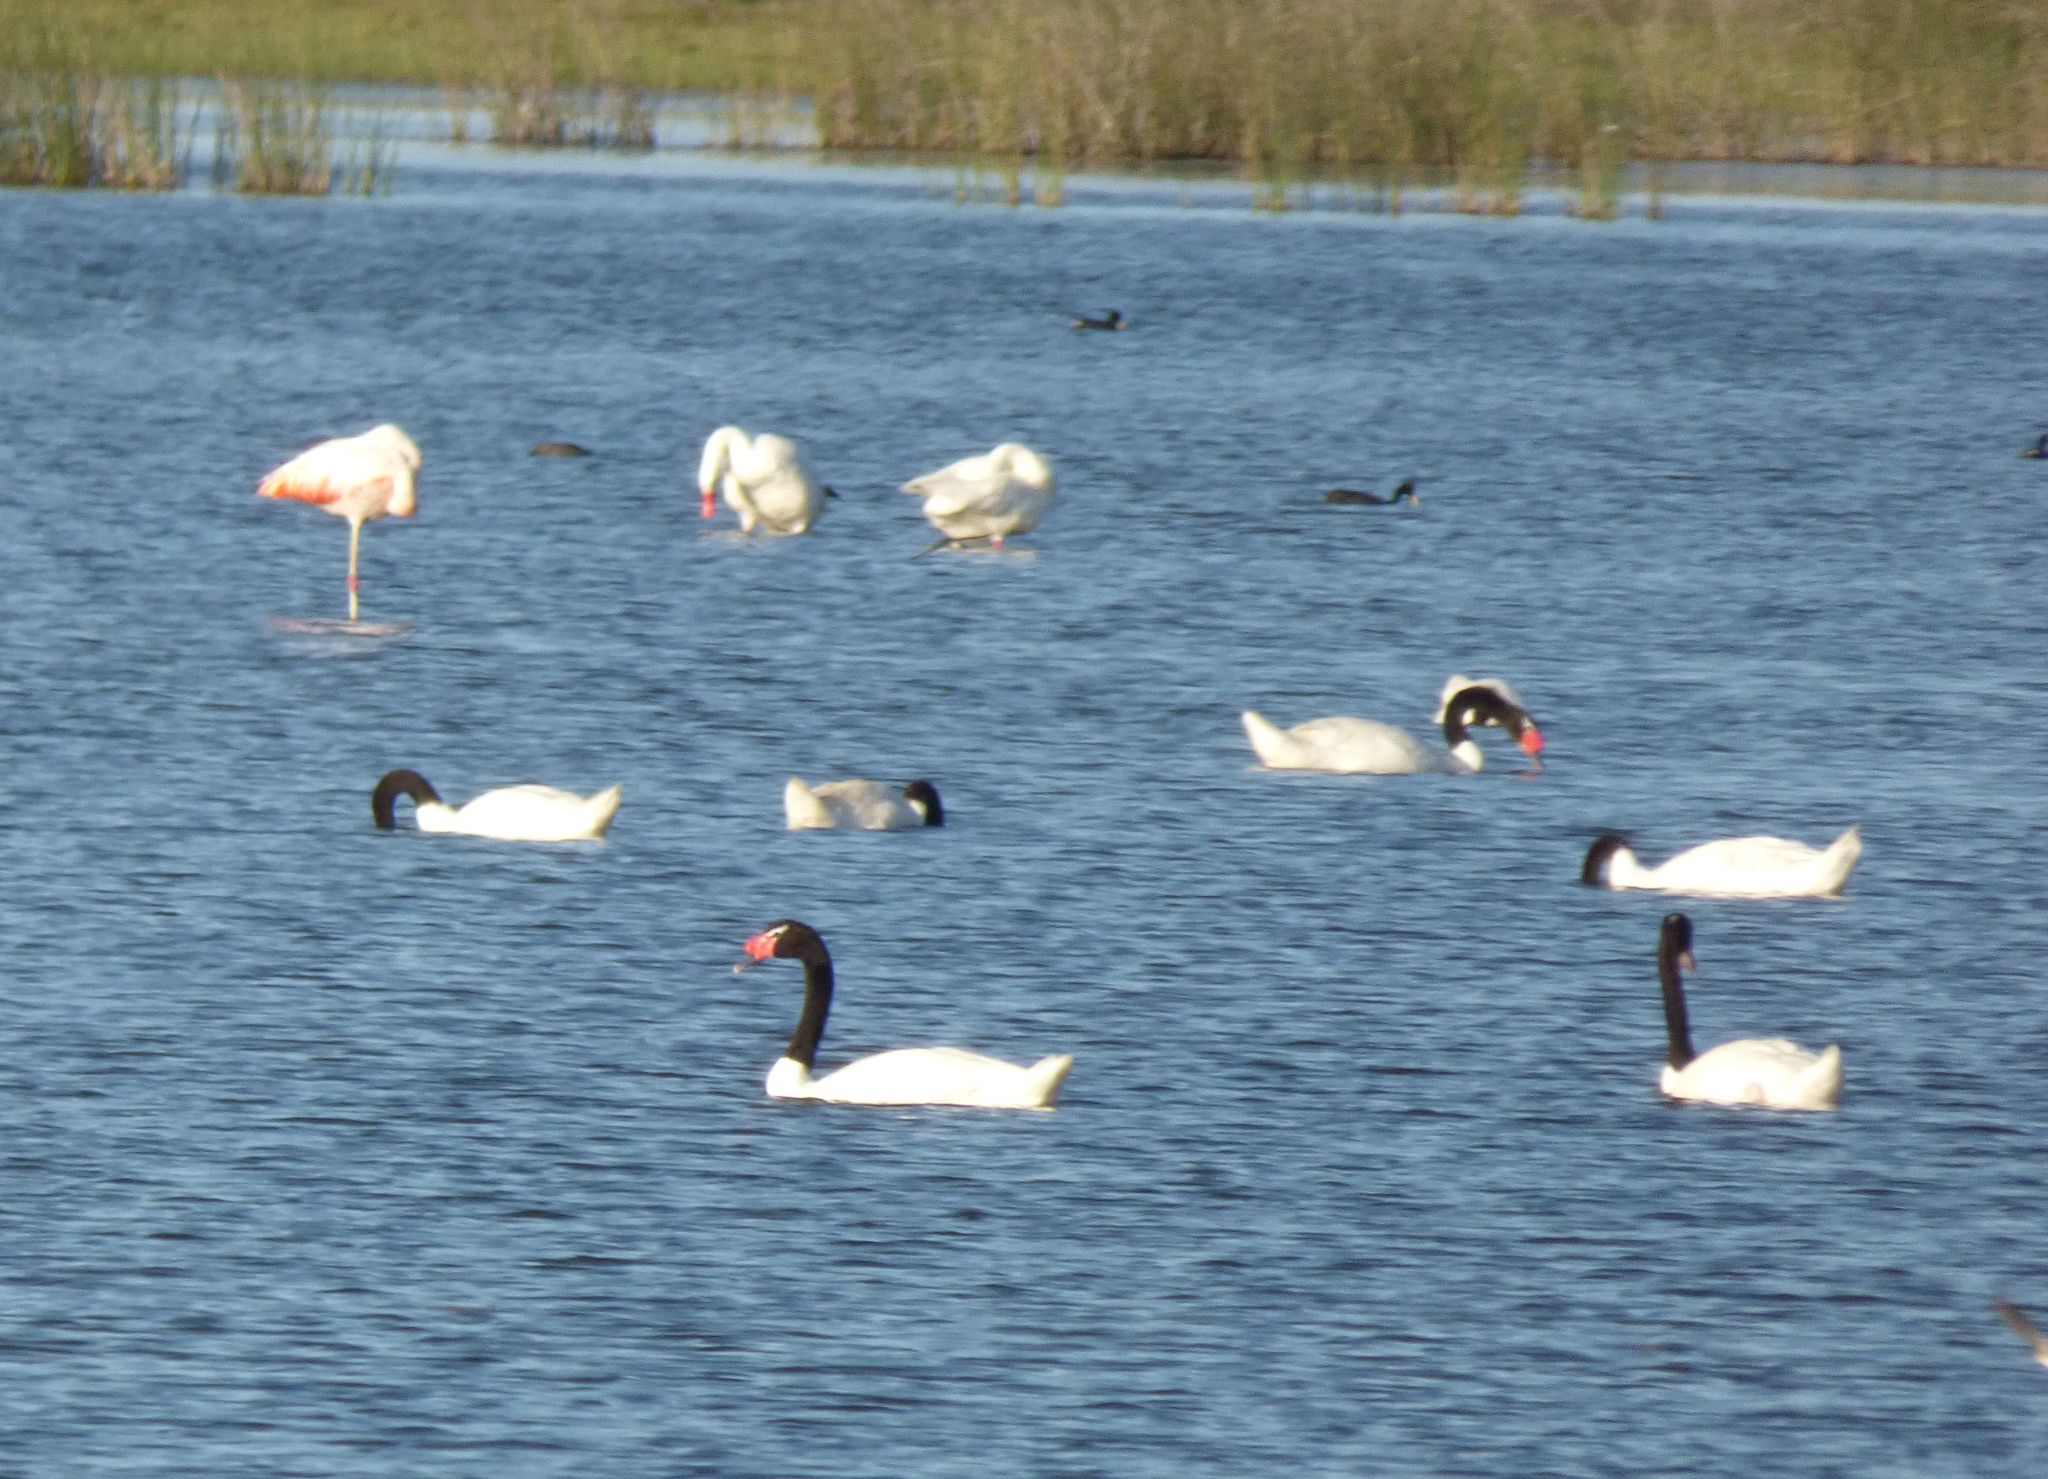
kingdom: Animalia
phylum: Chordata
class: Aves
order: Anseriformes
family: Anatidae
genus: Cygnus
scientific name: Cygnus melancoryphus
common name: Black-necked swan
